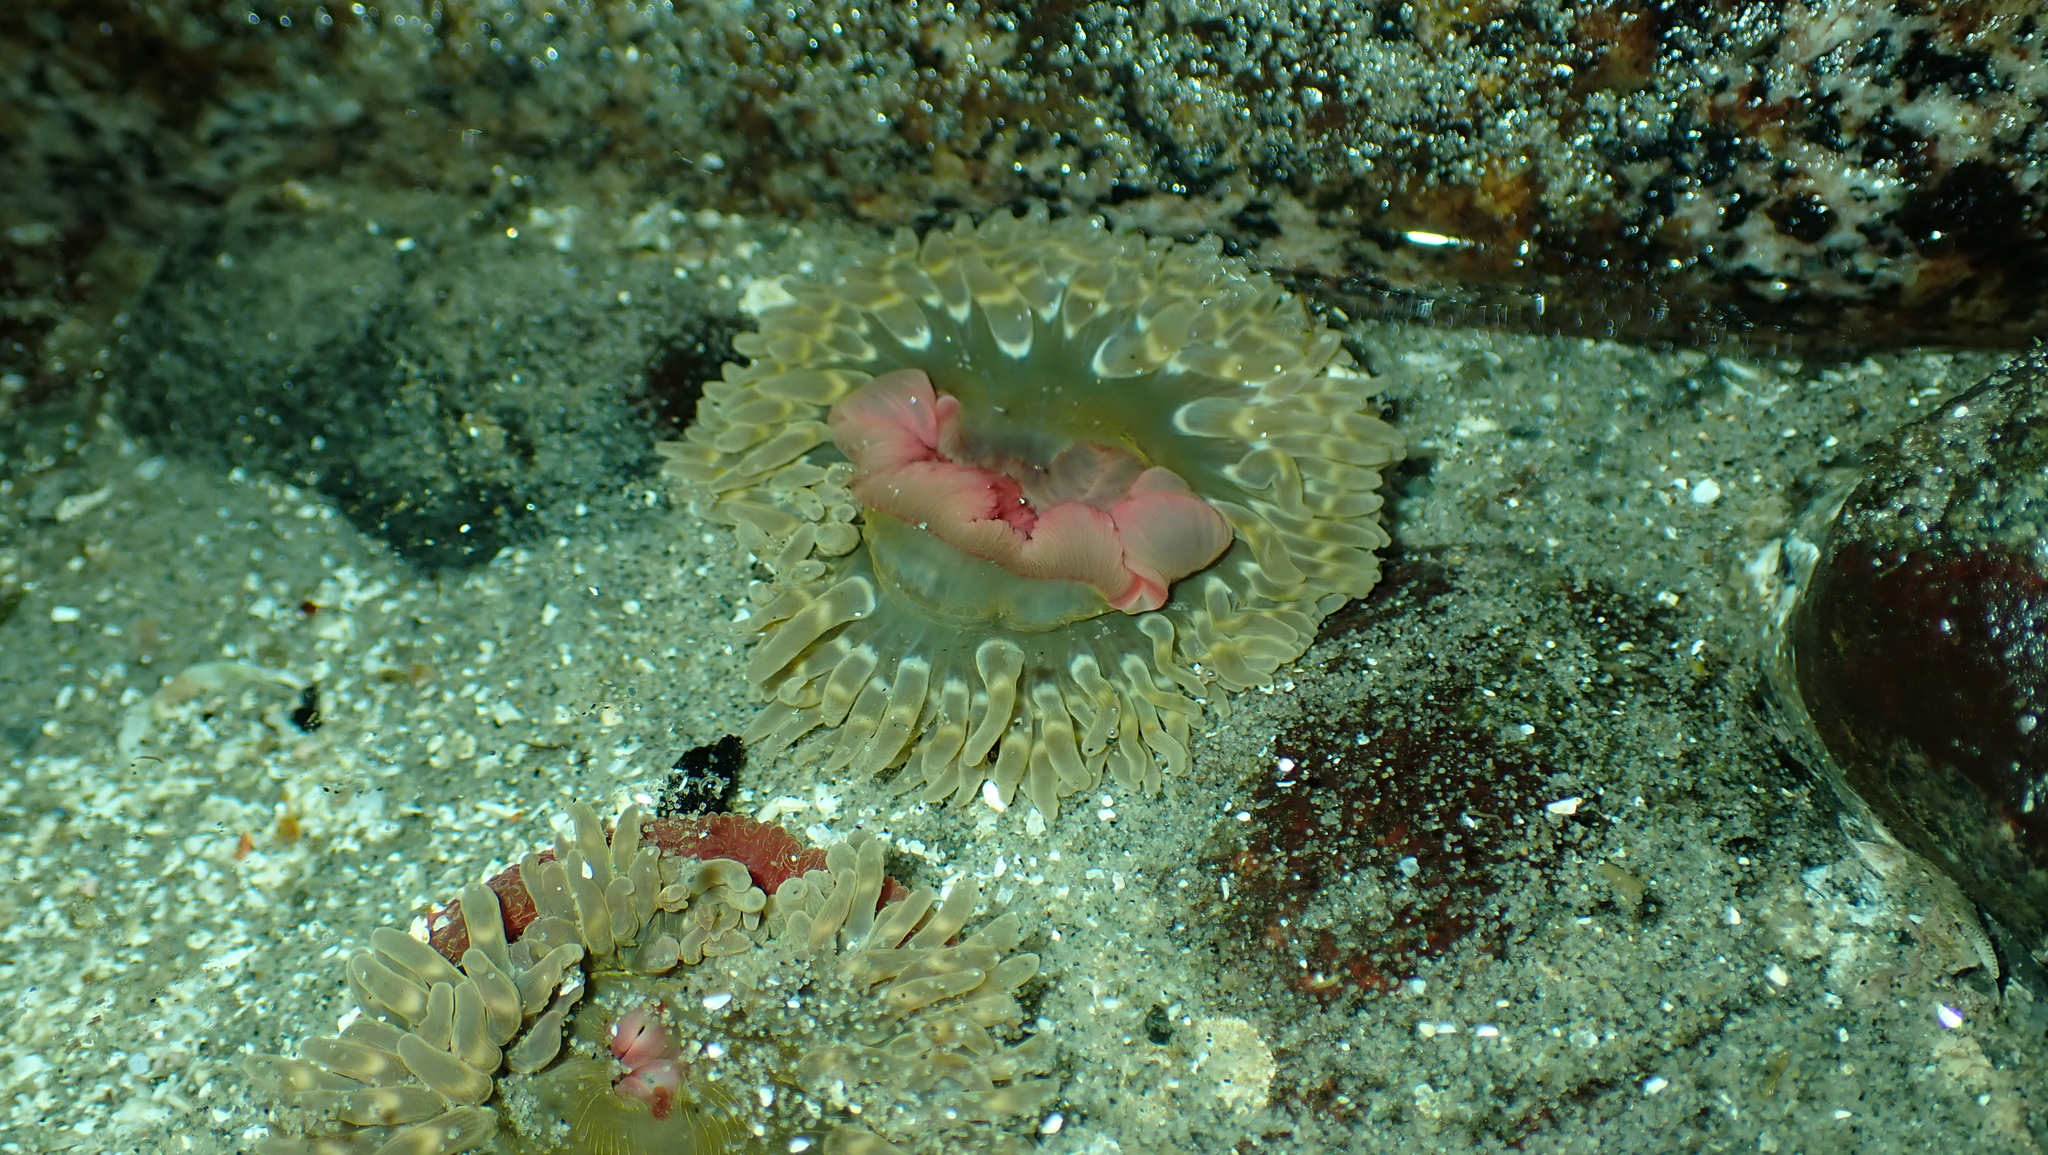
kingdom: Animalia
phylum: Cnidaria
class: Anthozoa
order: Actiniaria
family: Actiniidae
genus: Urticina
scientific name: Urticina clandestina
